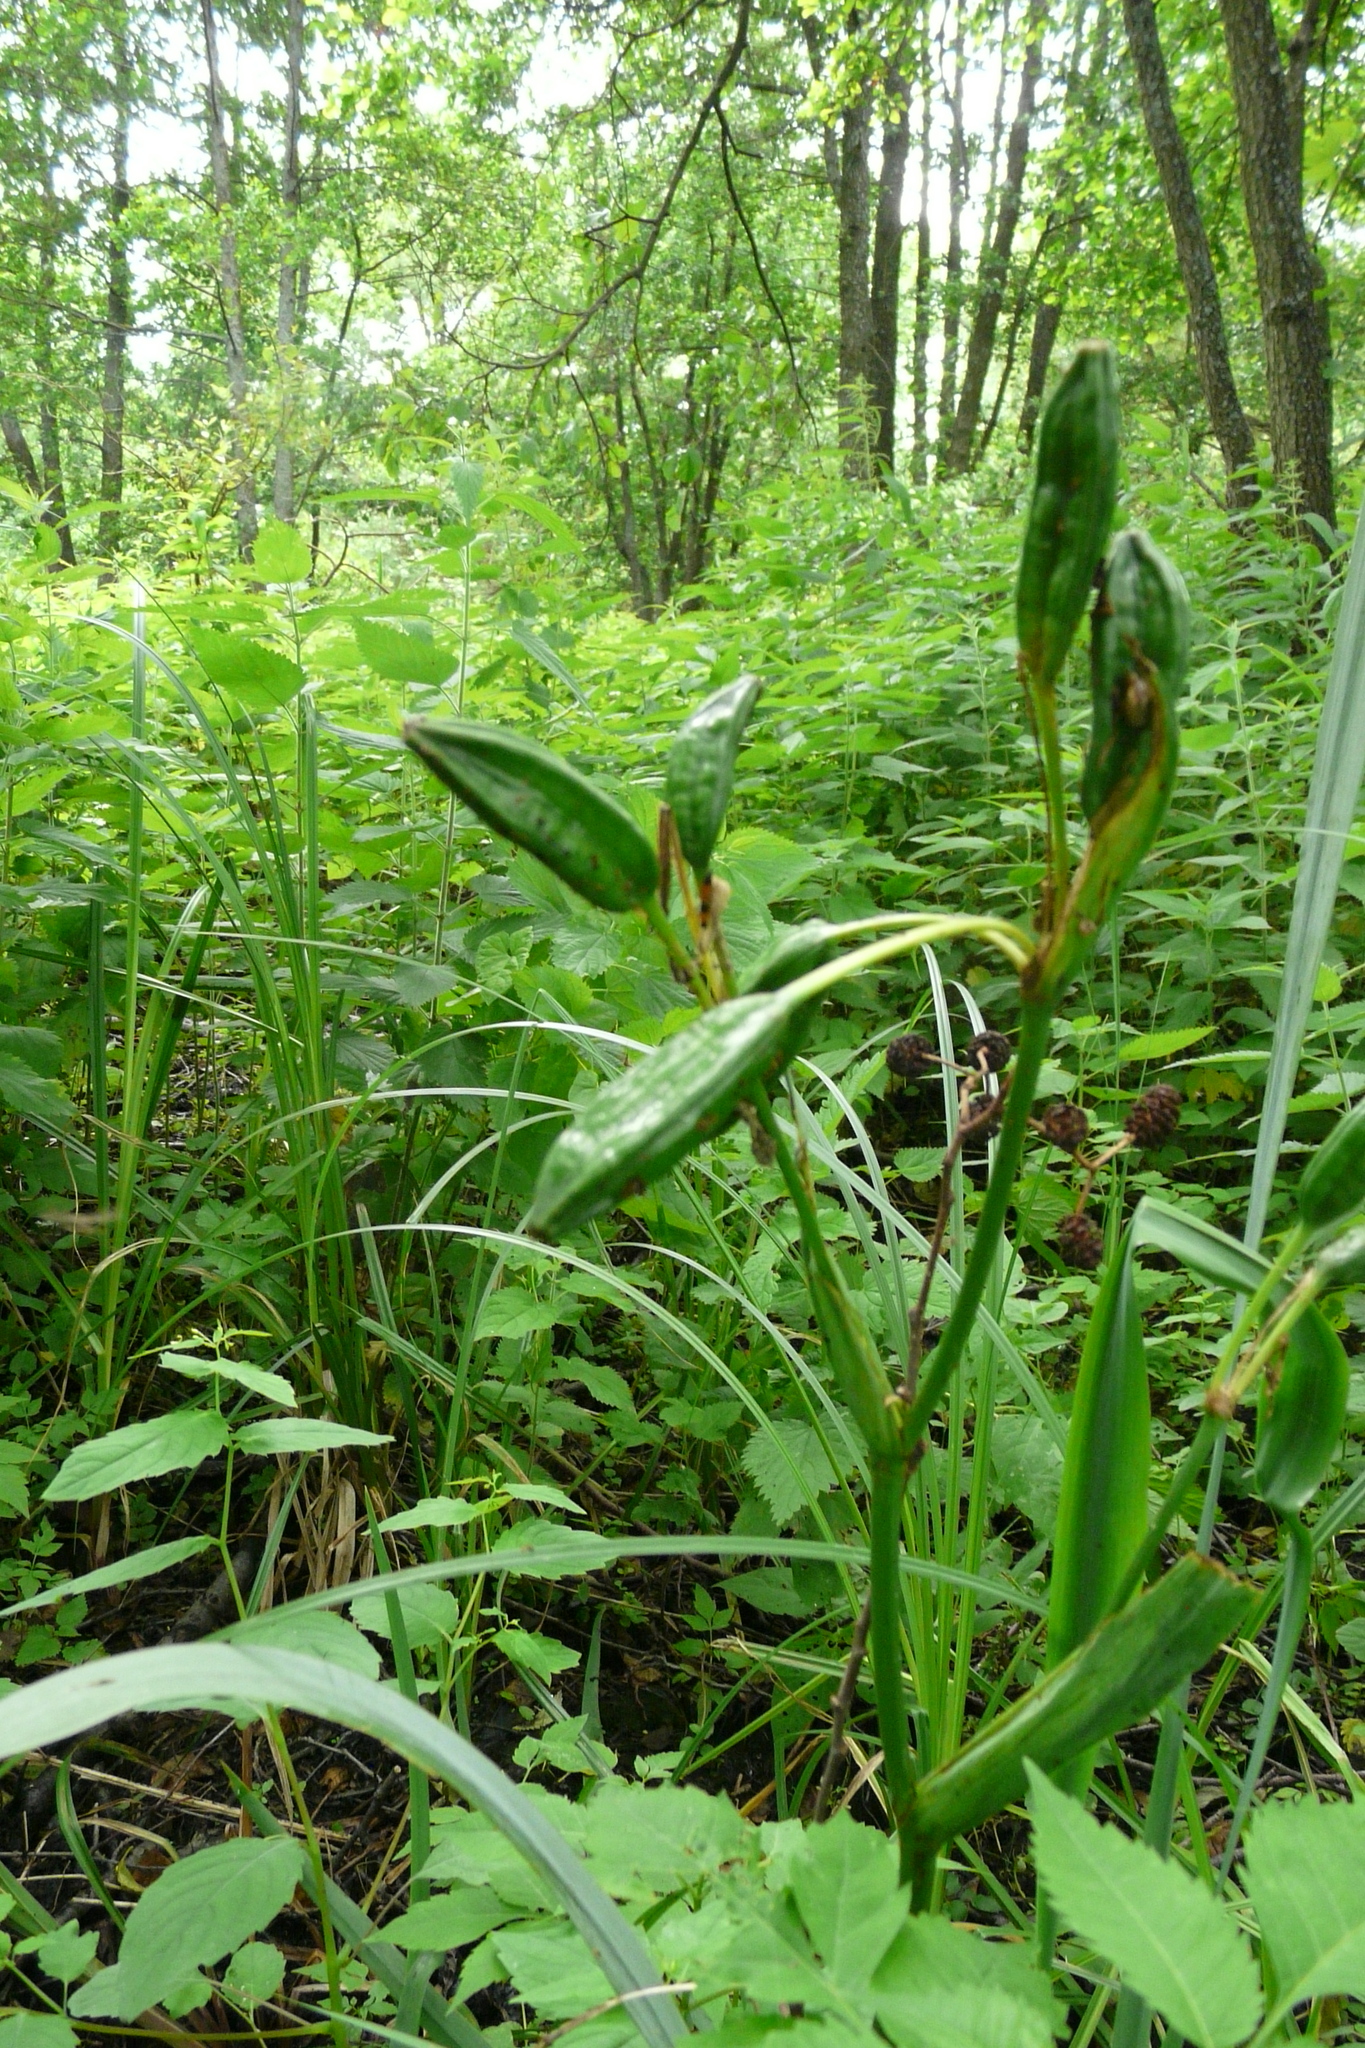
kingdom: Plantae
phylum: Tracheophyta
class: Liliopsida
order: Asparagales
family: Iridaceae
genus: Iris
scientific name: Iris pseudacorus
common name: Yellow flag
